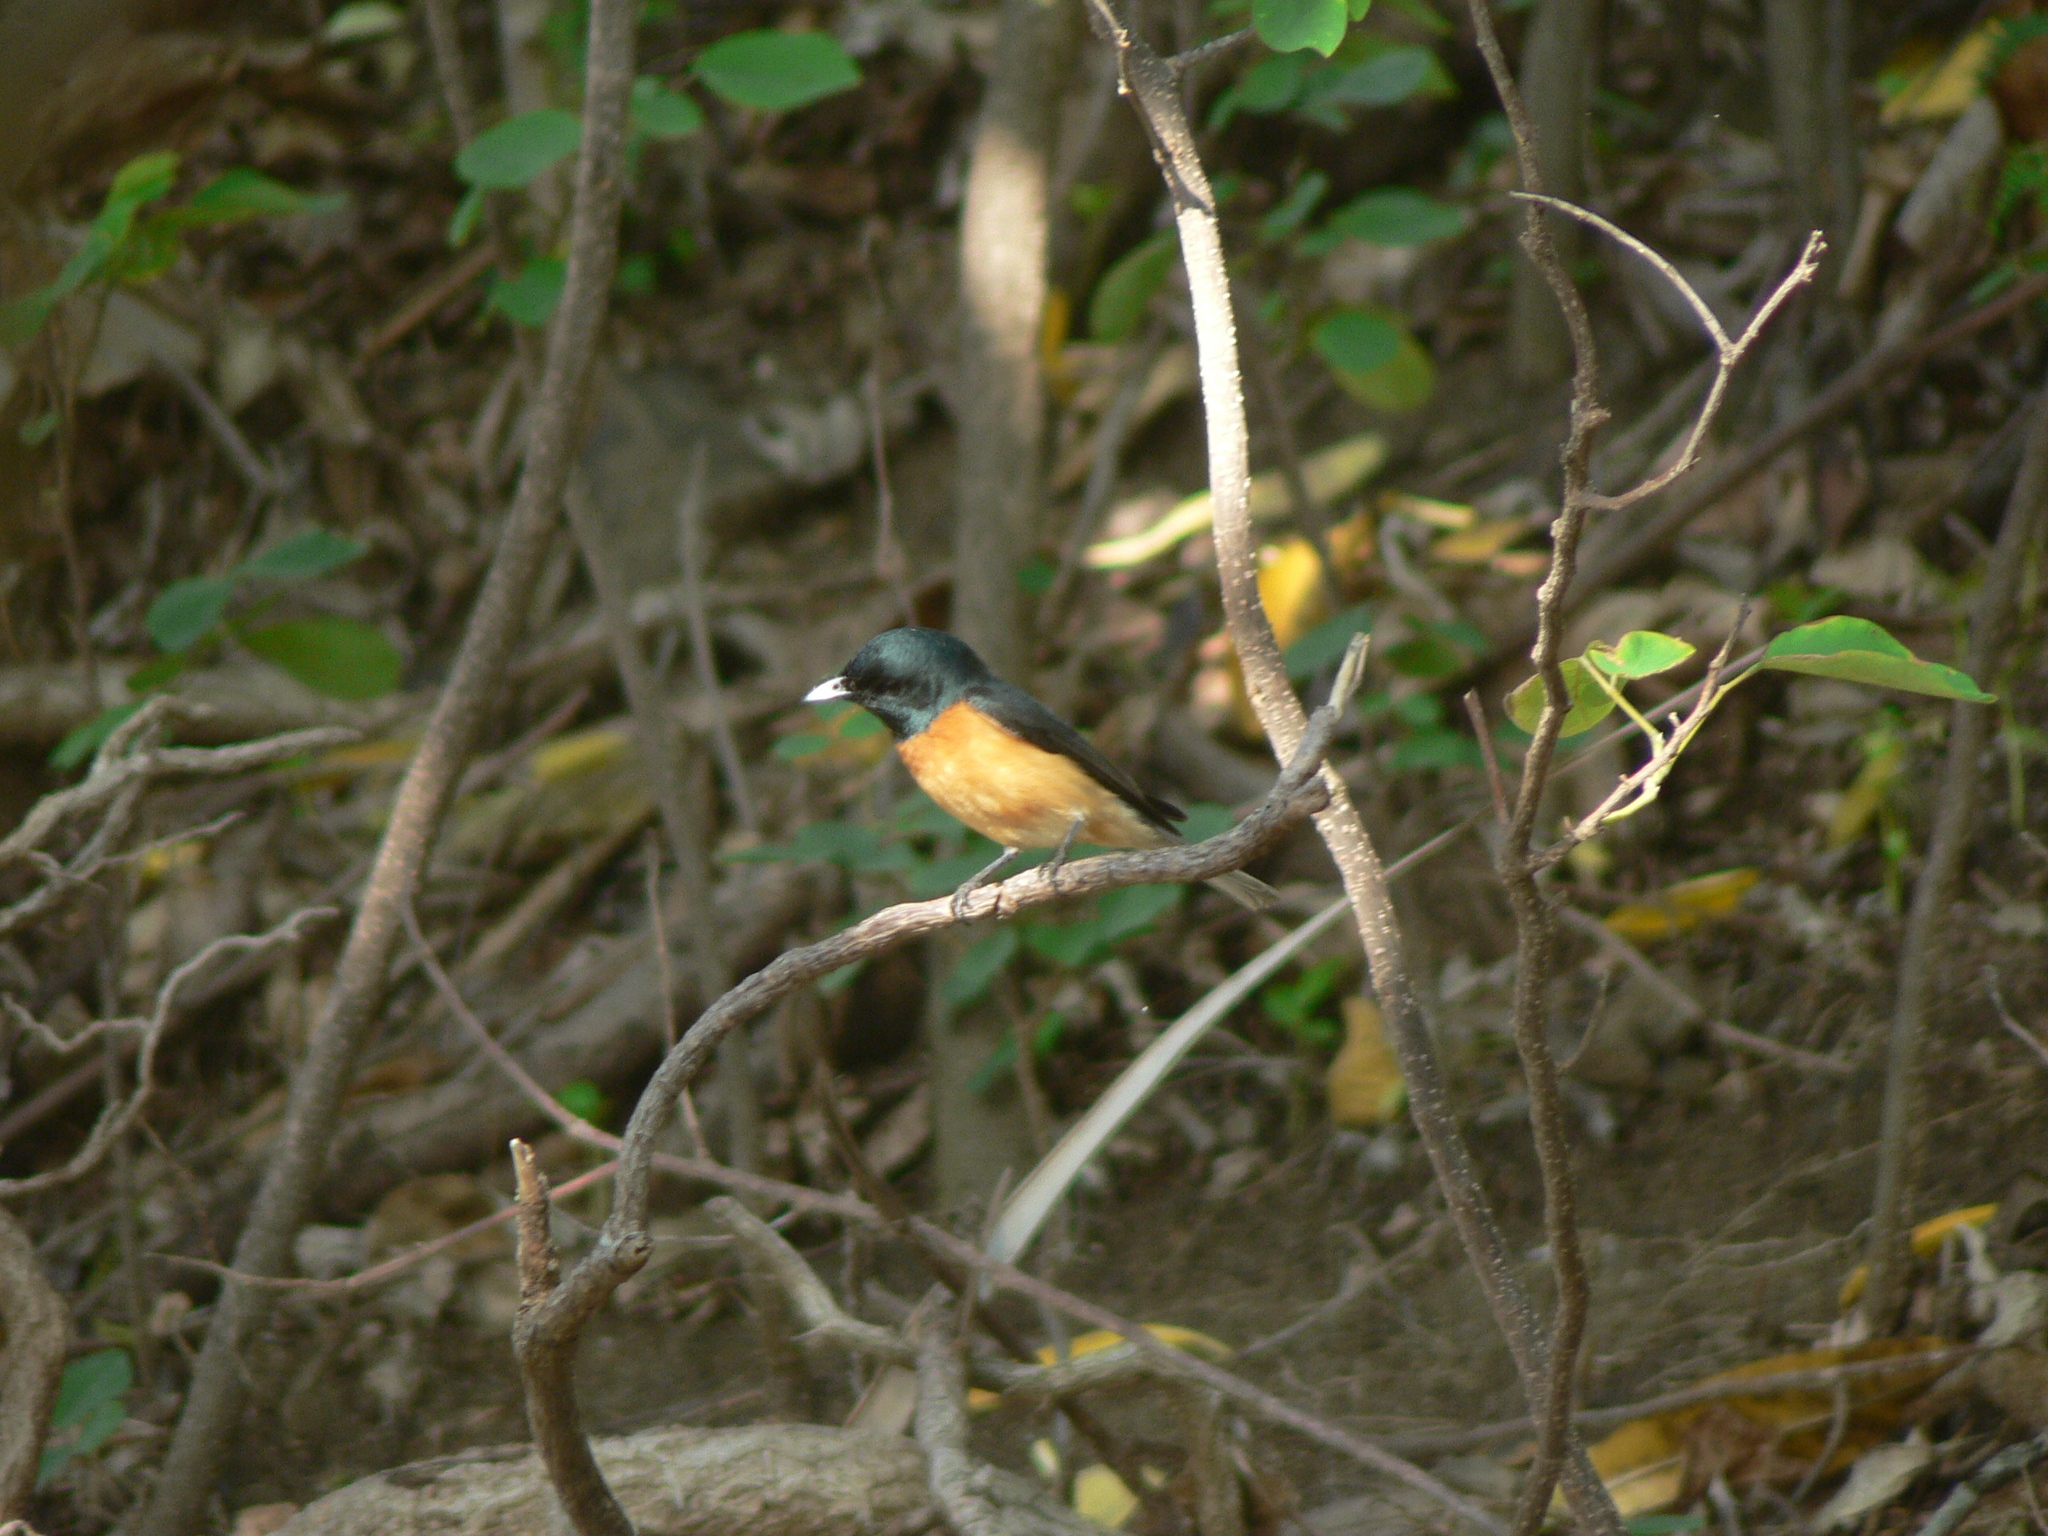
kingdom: Animalia
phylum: Chordata
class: Aves
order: Passeriformes
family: Monarchidae
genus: Myiagra
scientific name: Myiagra vanikorensis
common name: Vanikoro flycatcher
